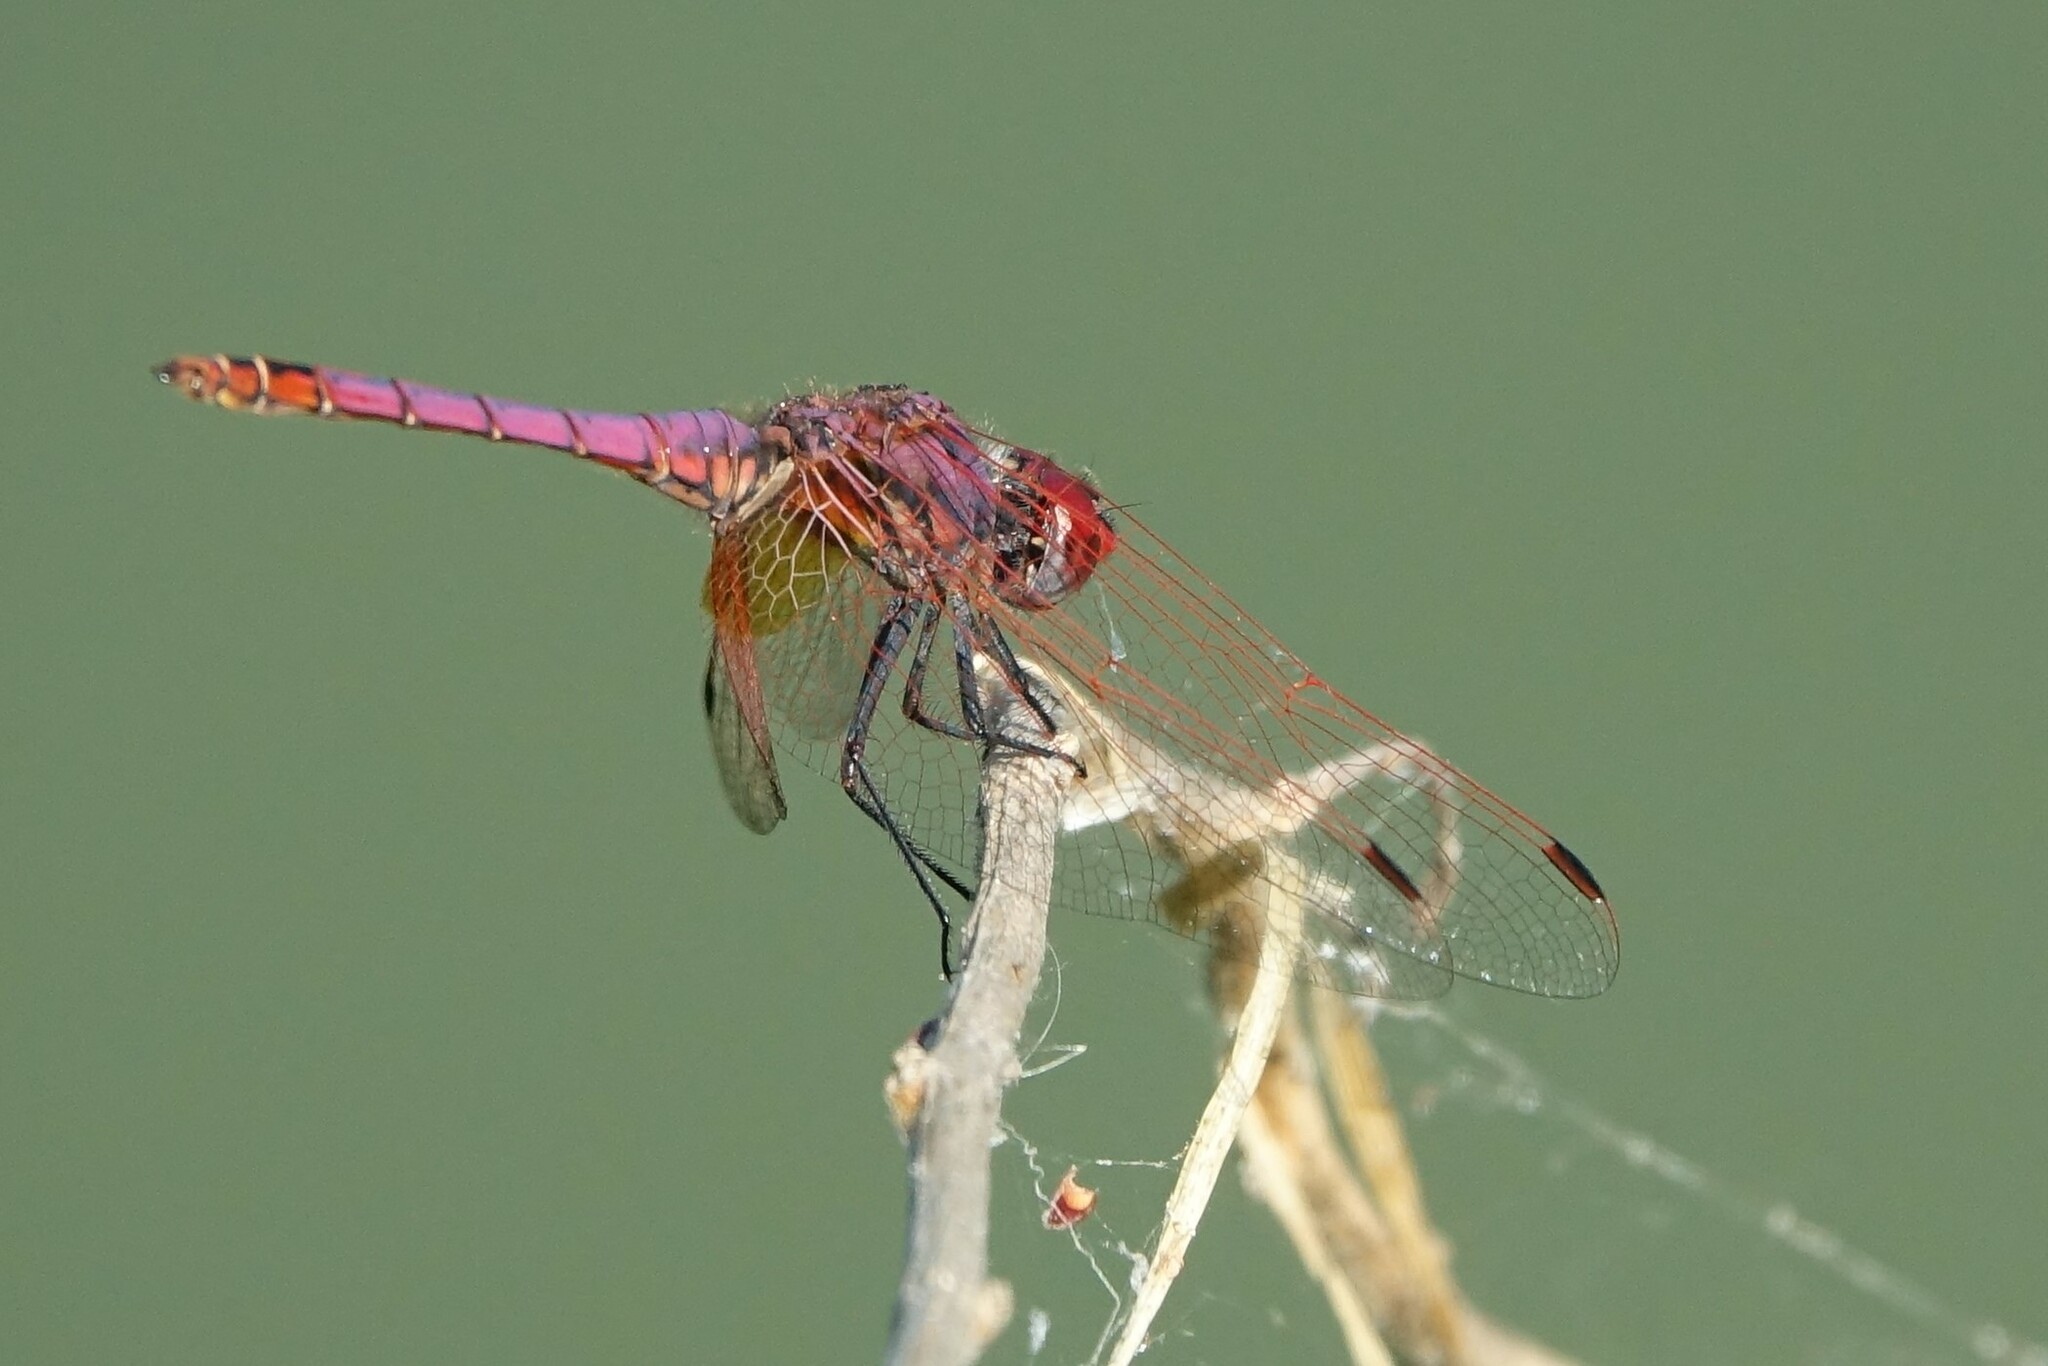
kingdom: Animalia
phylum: Arthropoda
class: Insecta
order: Odonata
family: Libellulidae
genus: Trithemis
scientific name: Trithemis annulata
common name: Violet dropwing
